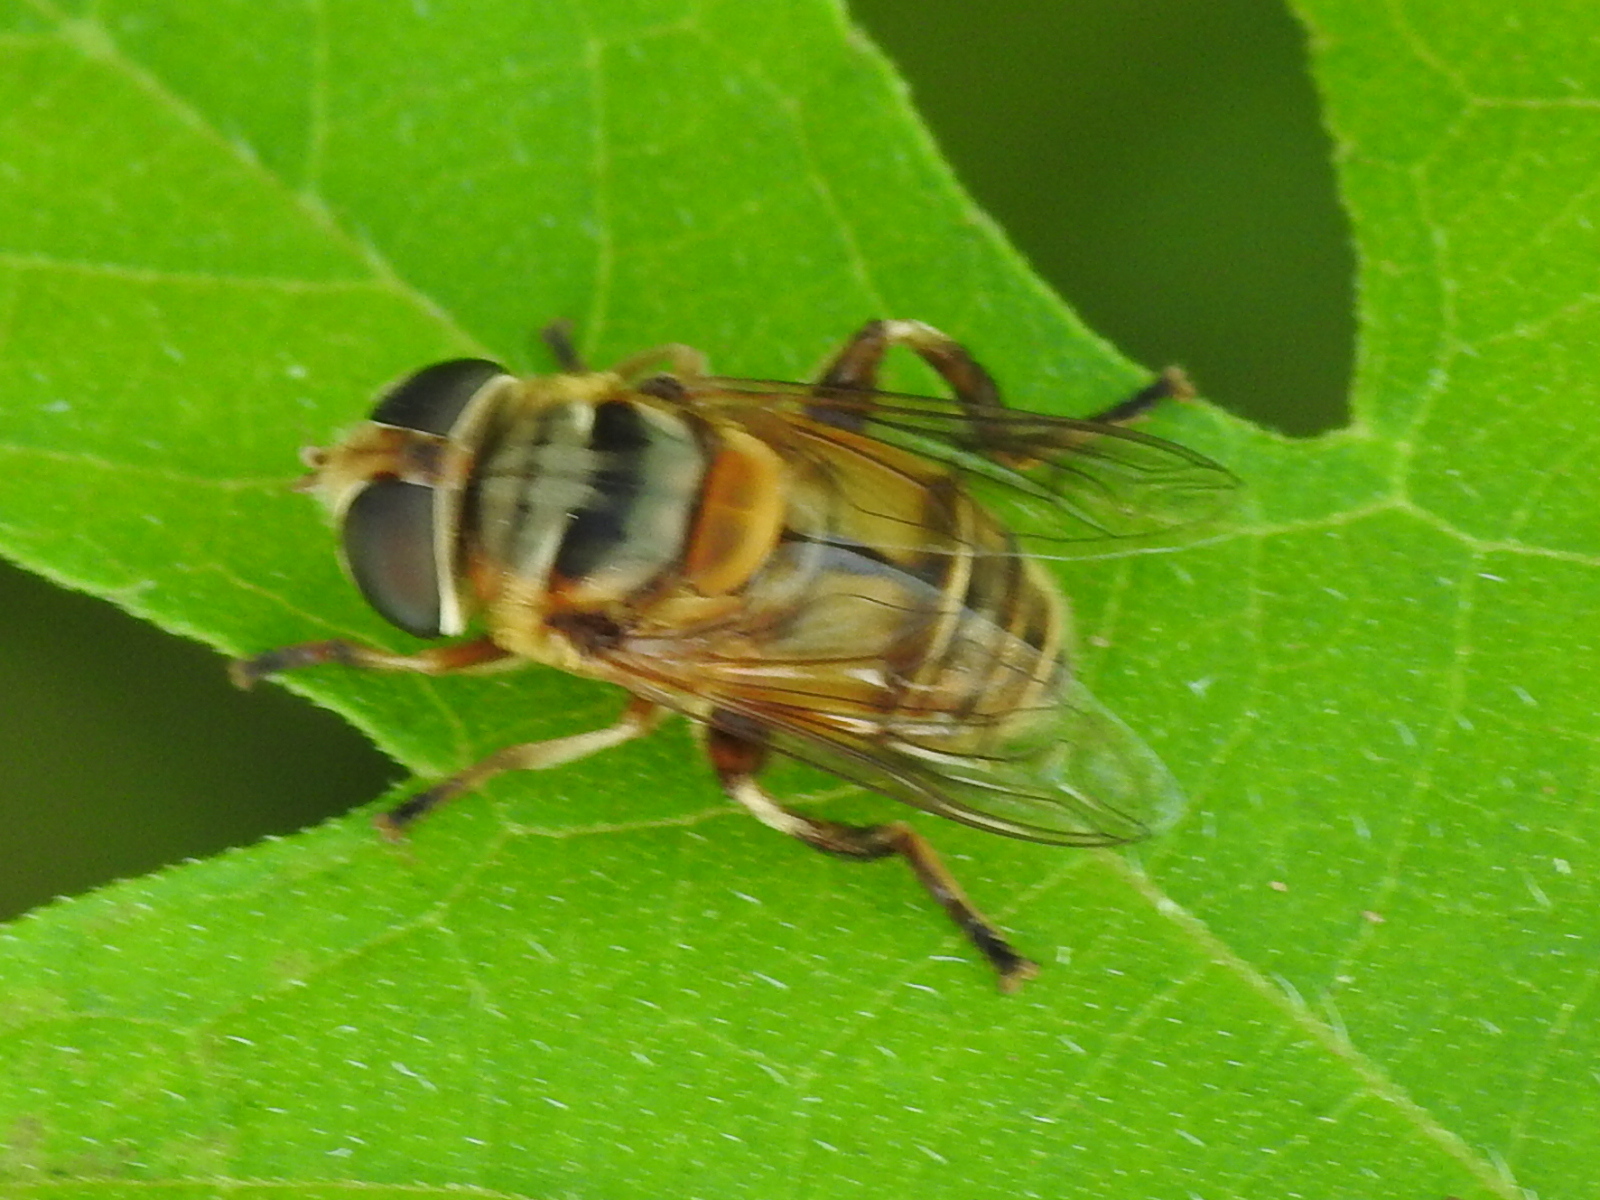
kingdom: Animalia
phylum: Arthropoda
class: Insecta
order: Diptera
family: Syrphidae
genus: Palpada
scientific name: Palpada vinetorum
